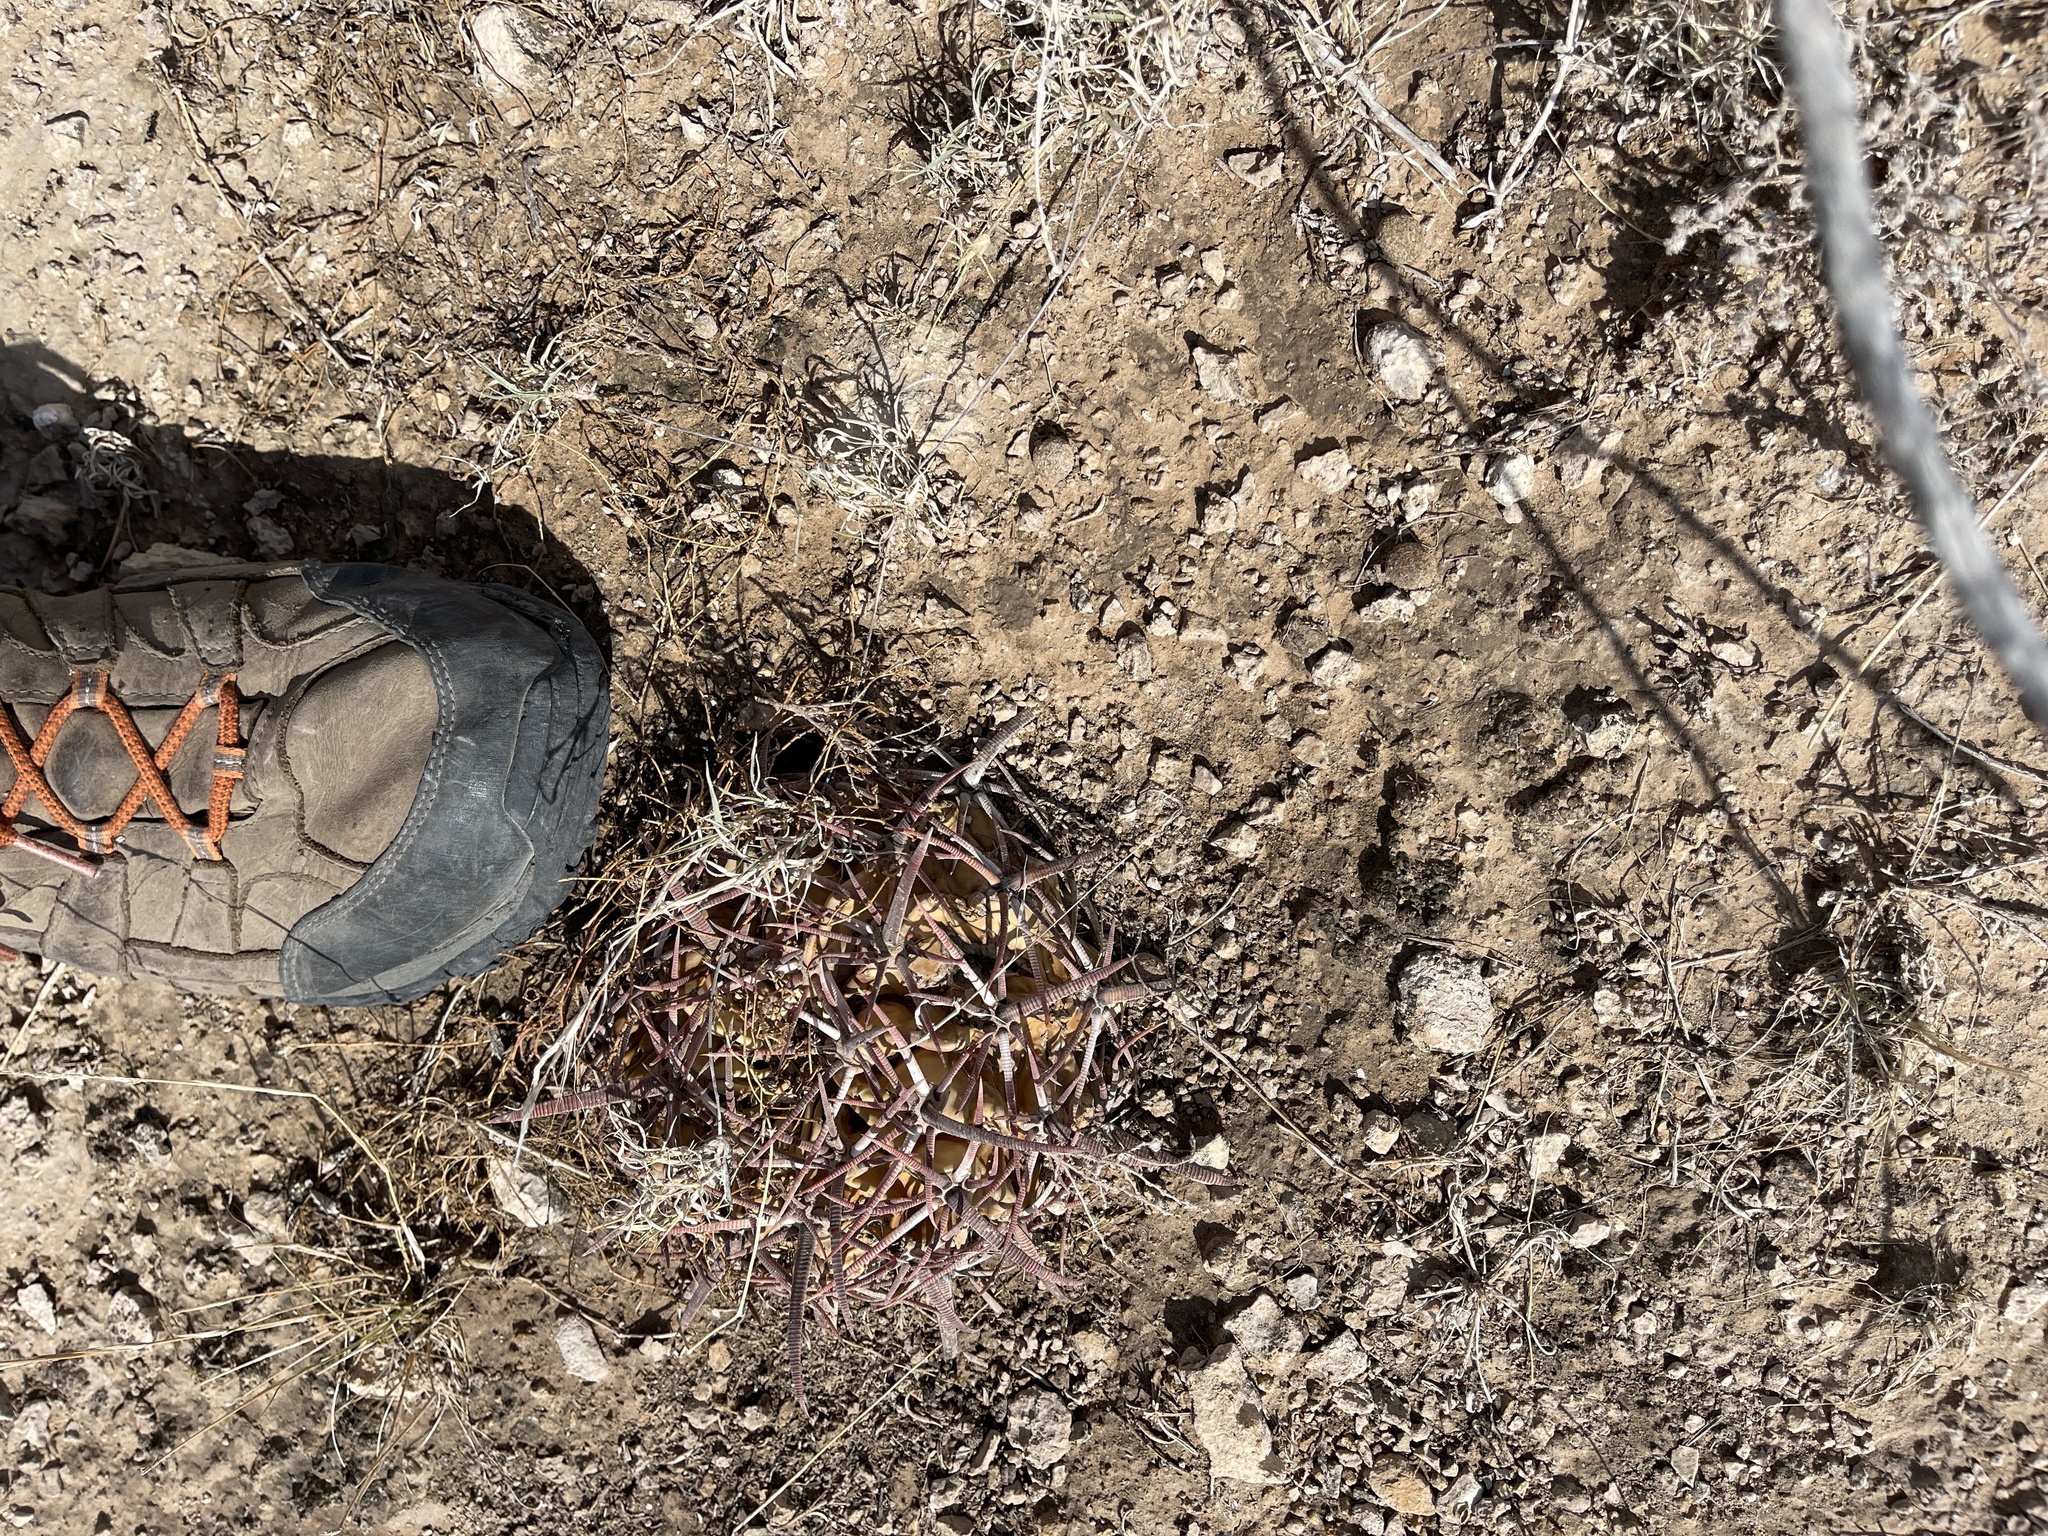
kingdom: Plantae
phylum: Tracheophyta
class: Magnoliopsida
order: Caryophyllales
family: Cactaceae
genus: Echinocactus
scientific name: Echinocactus texensis
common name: Devil's pincushion
